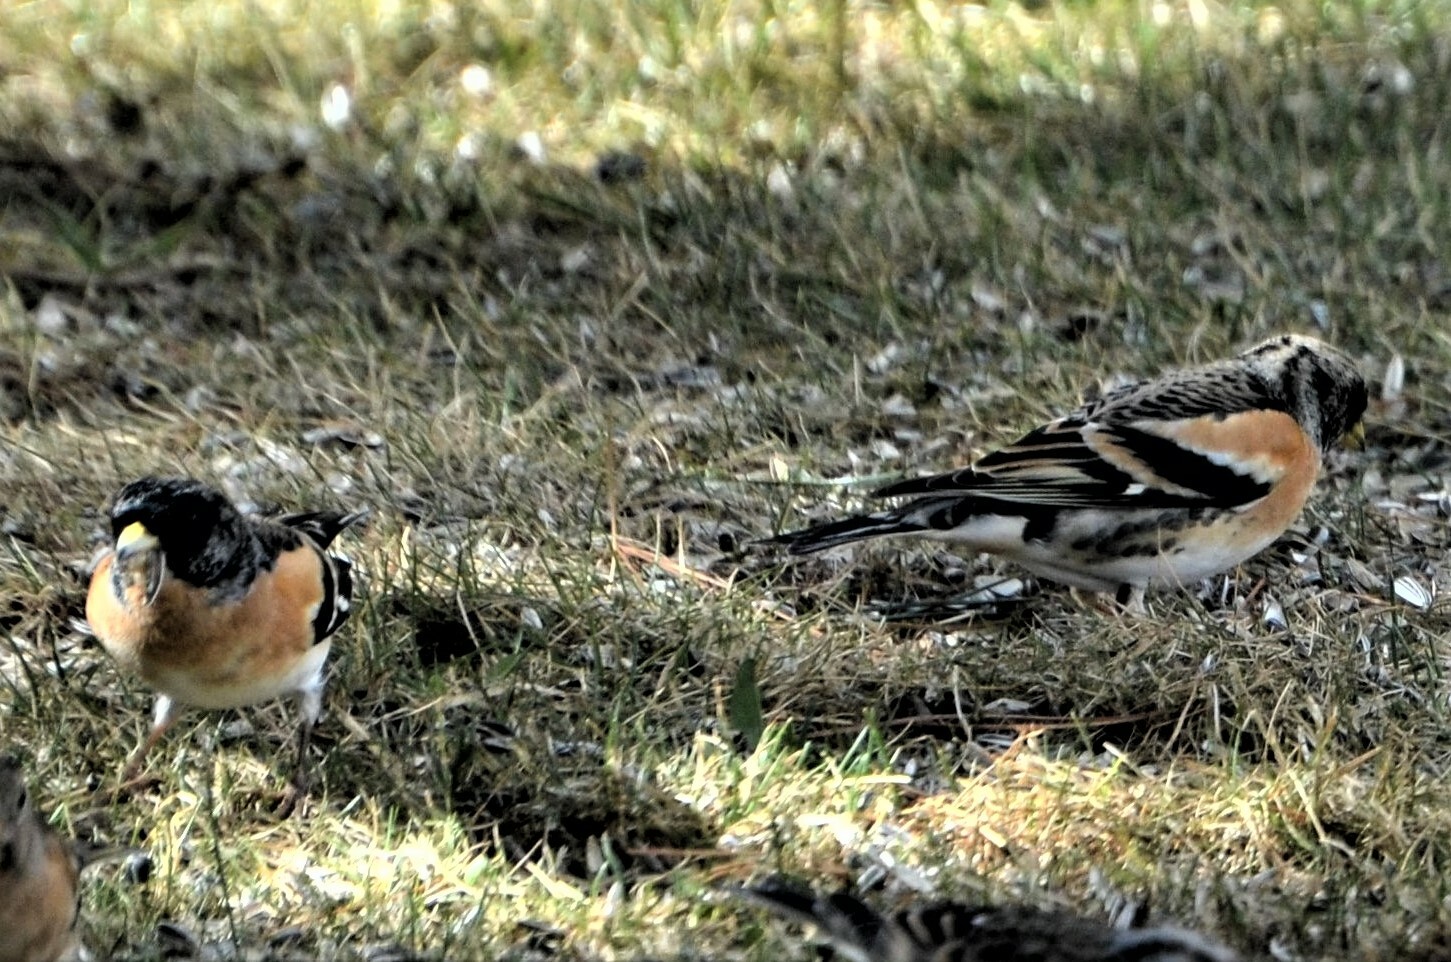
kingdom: Animalia
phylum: Chordata
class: Aves
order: Passeriformes
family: Fringillidae
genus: Fringilla
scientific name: Fringilla montifringilla
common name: Brambling
